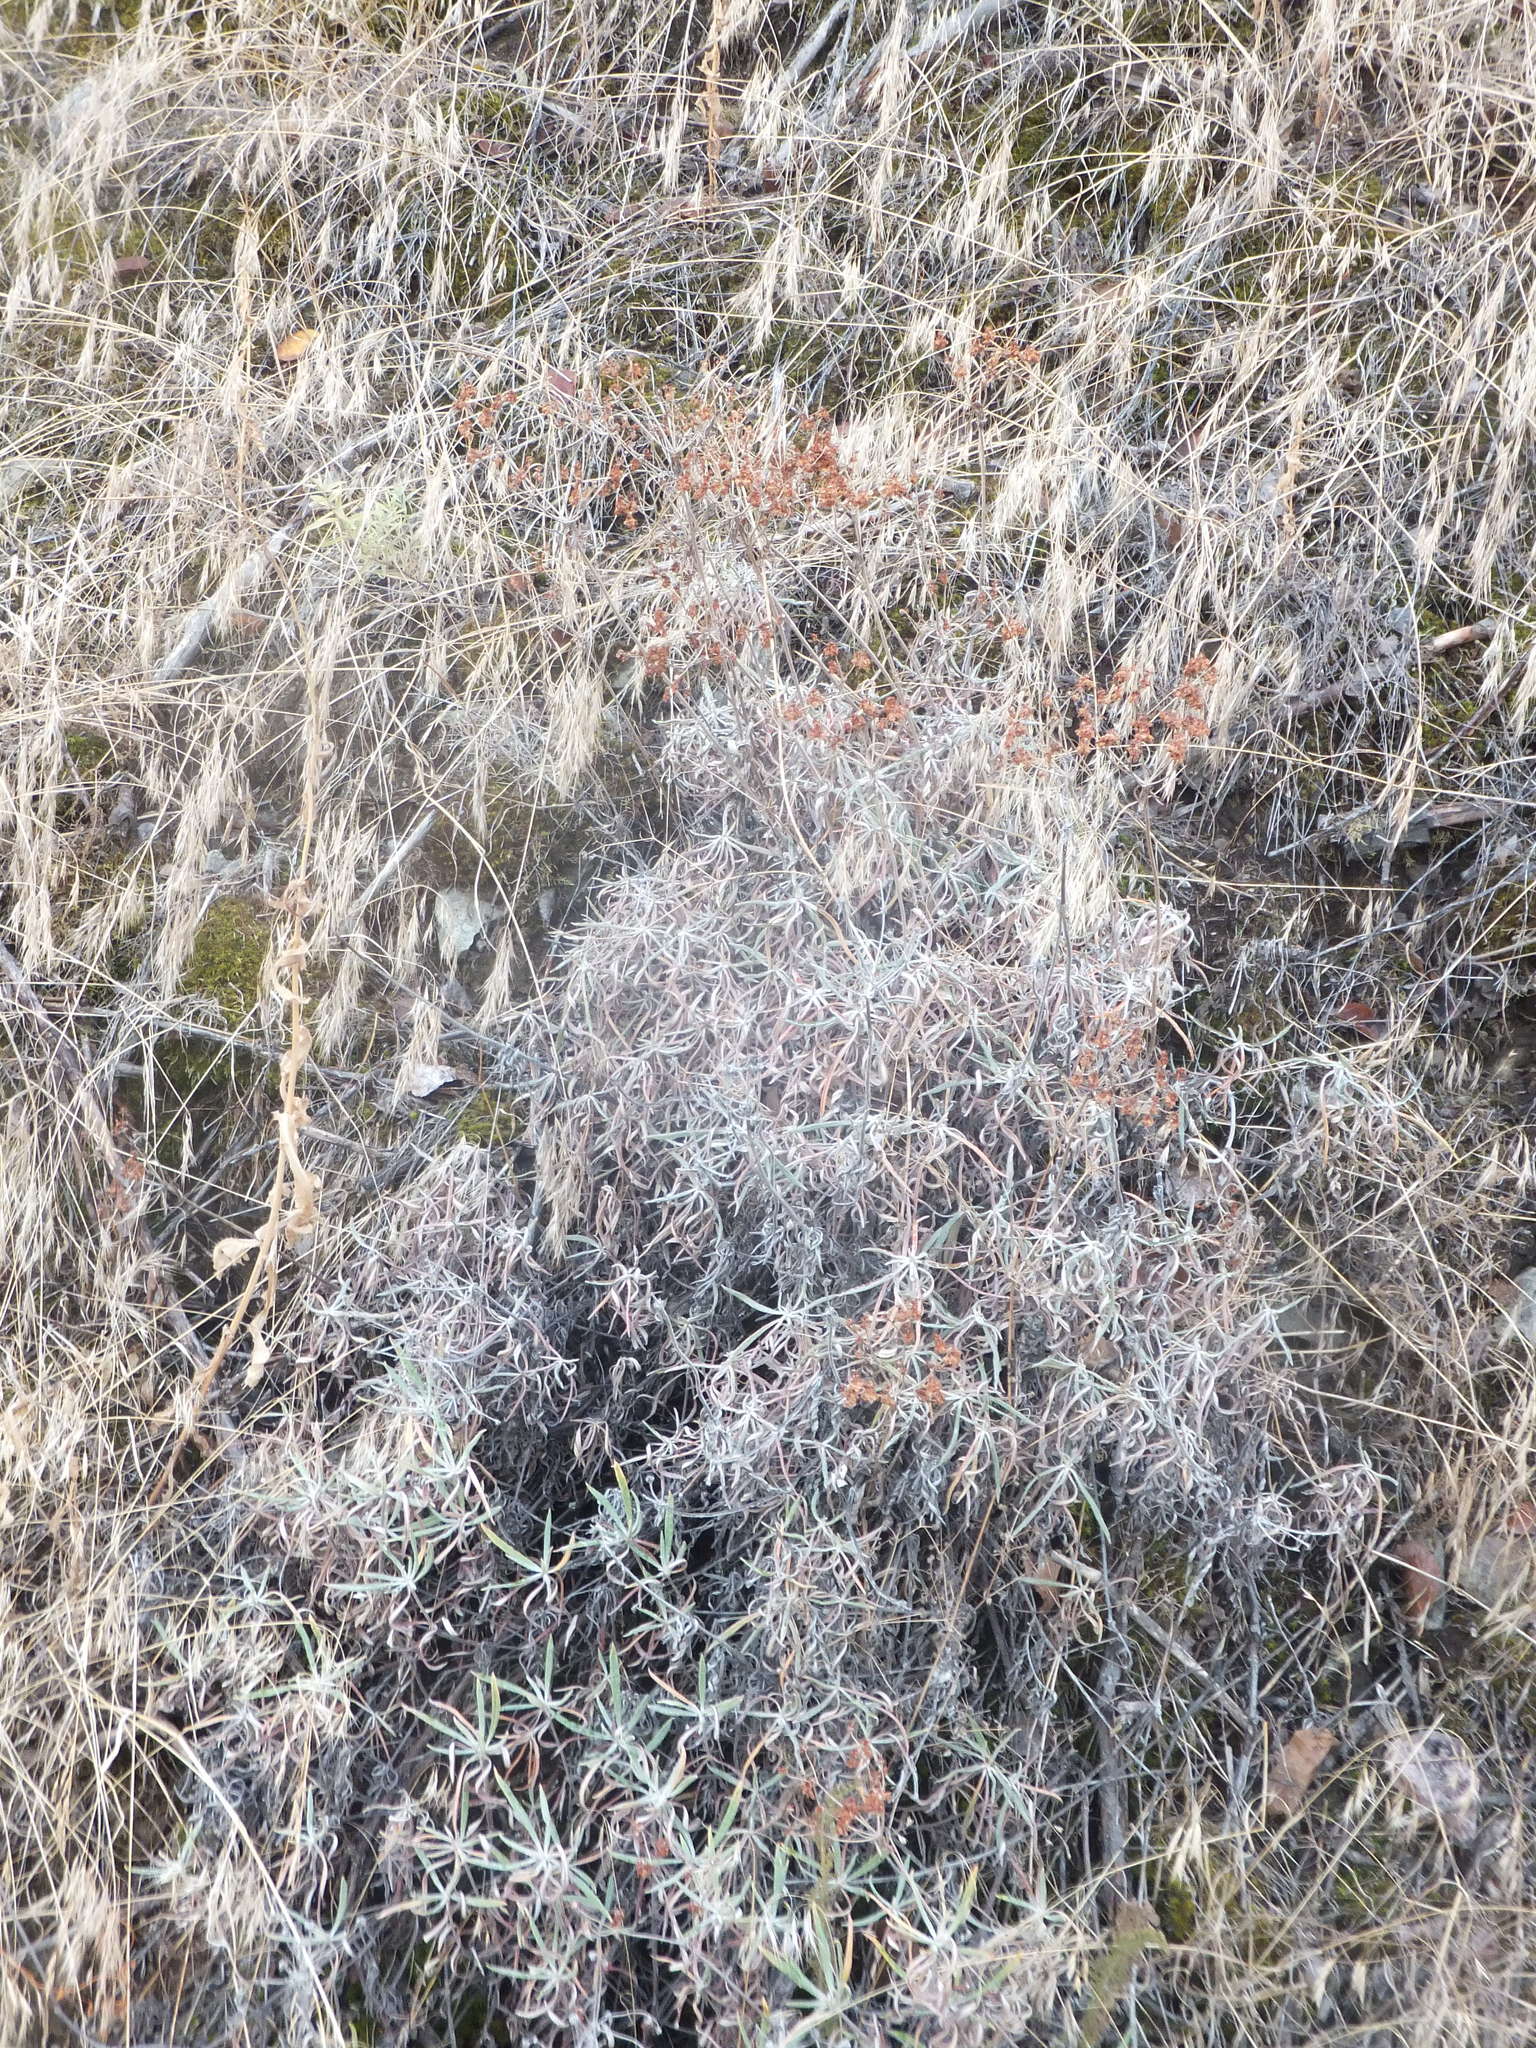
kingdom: Plantae
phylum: Tracheophyta
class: Magnoliopsida
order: Caryophyllales
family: Polygonaceae
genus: Eriogonum
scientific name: Eriogonum heracleoides
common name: Wyeth's buckwheat
